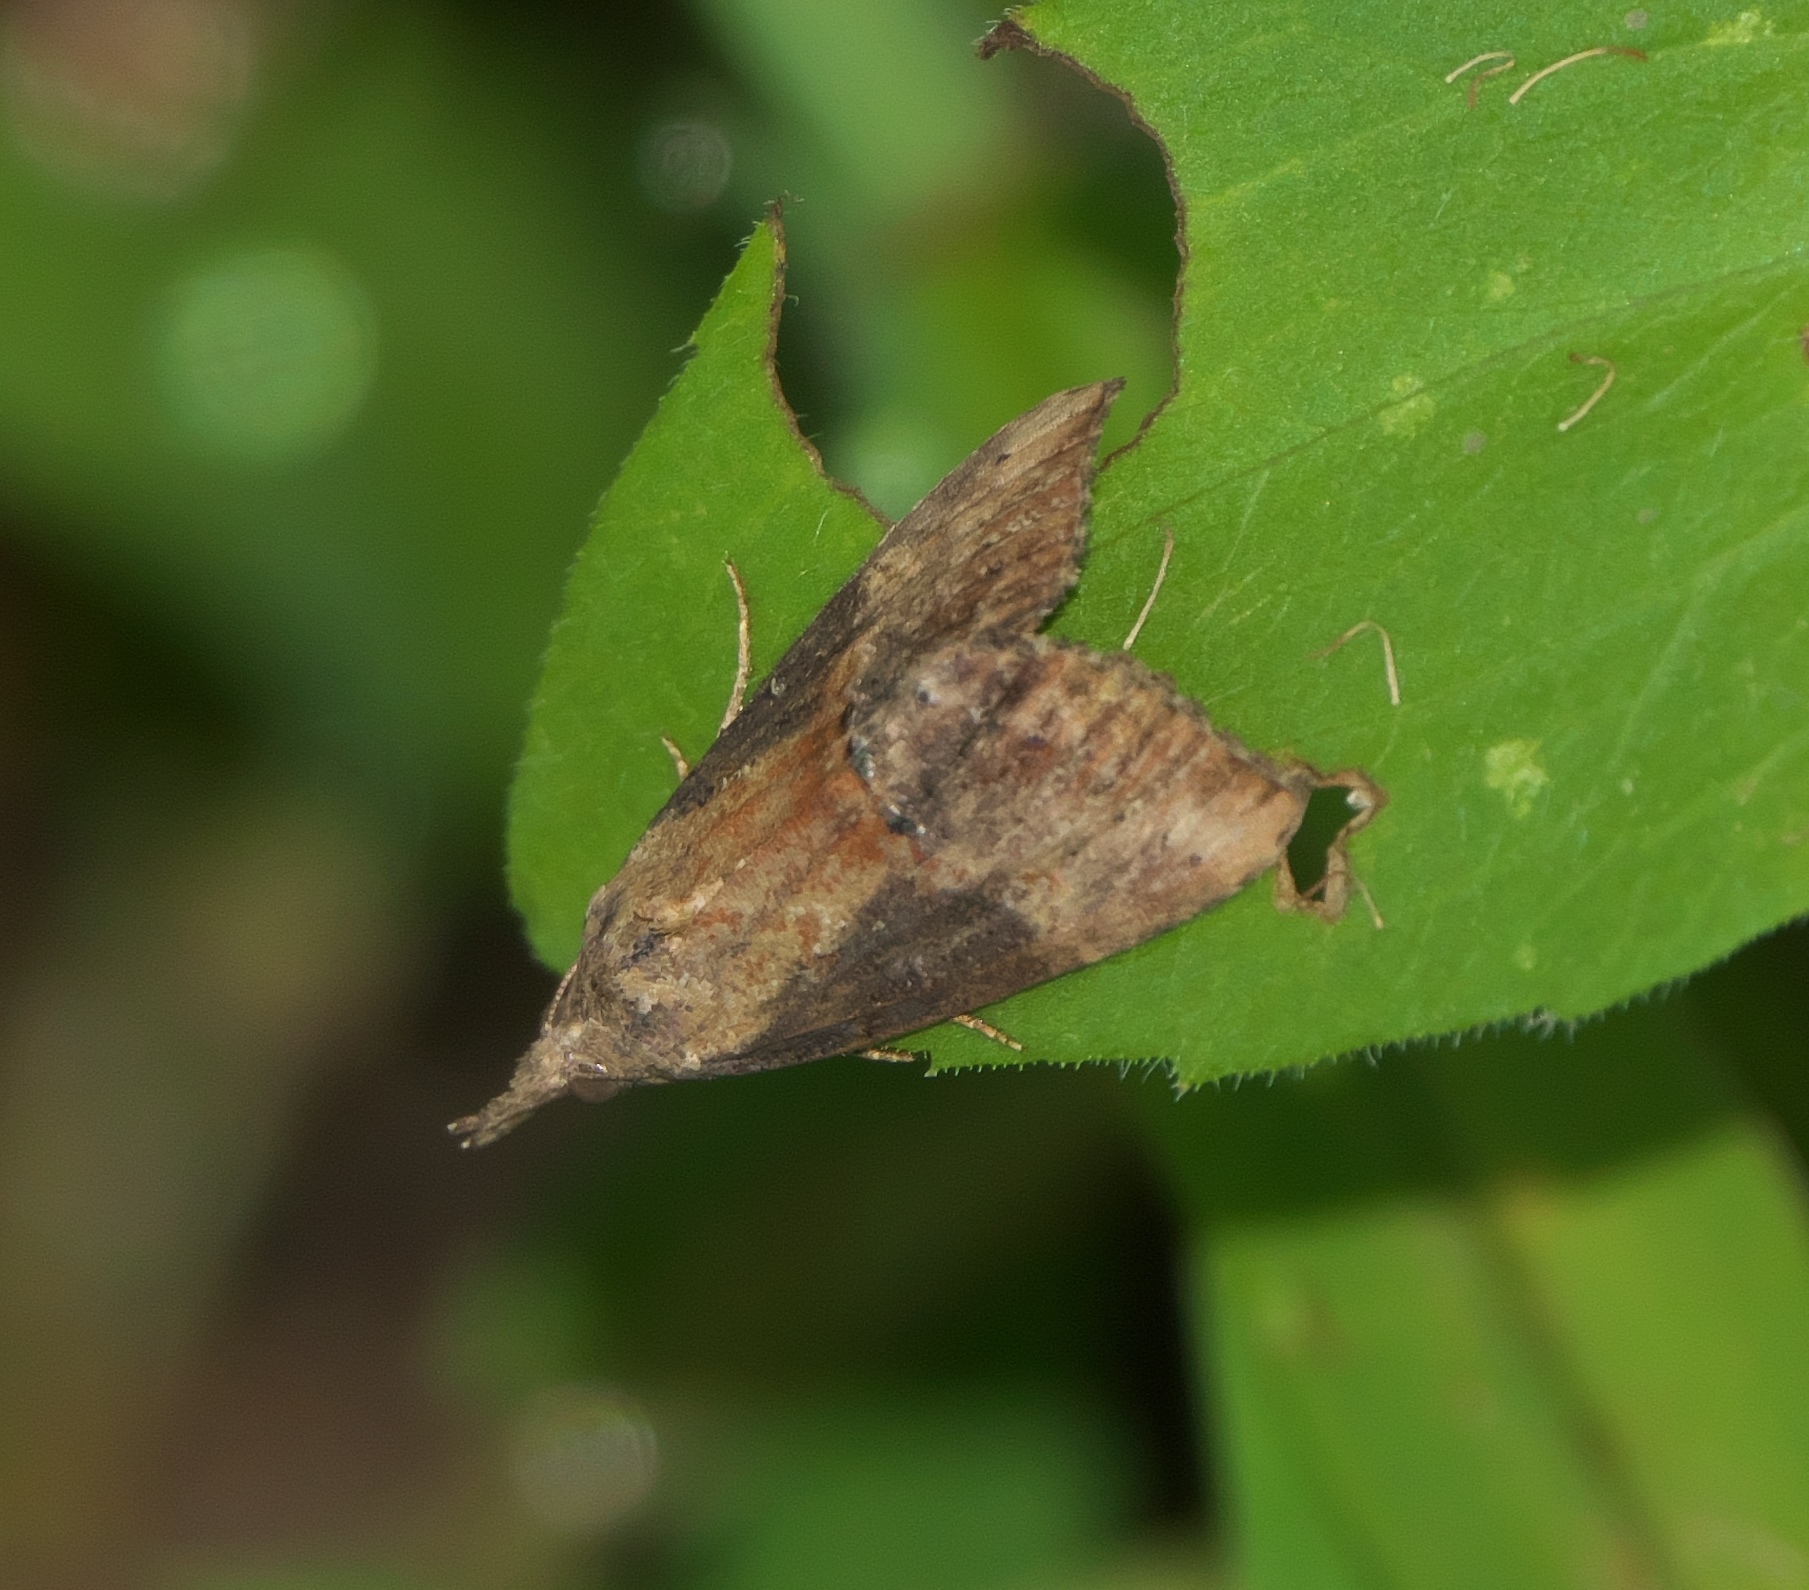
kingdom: Animalia
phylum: Arthropoda
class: Insecta
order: Lepidoptera
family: Erebidae
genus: Hypena
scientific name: Hypena scabra
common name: Green cloverworm
